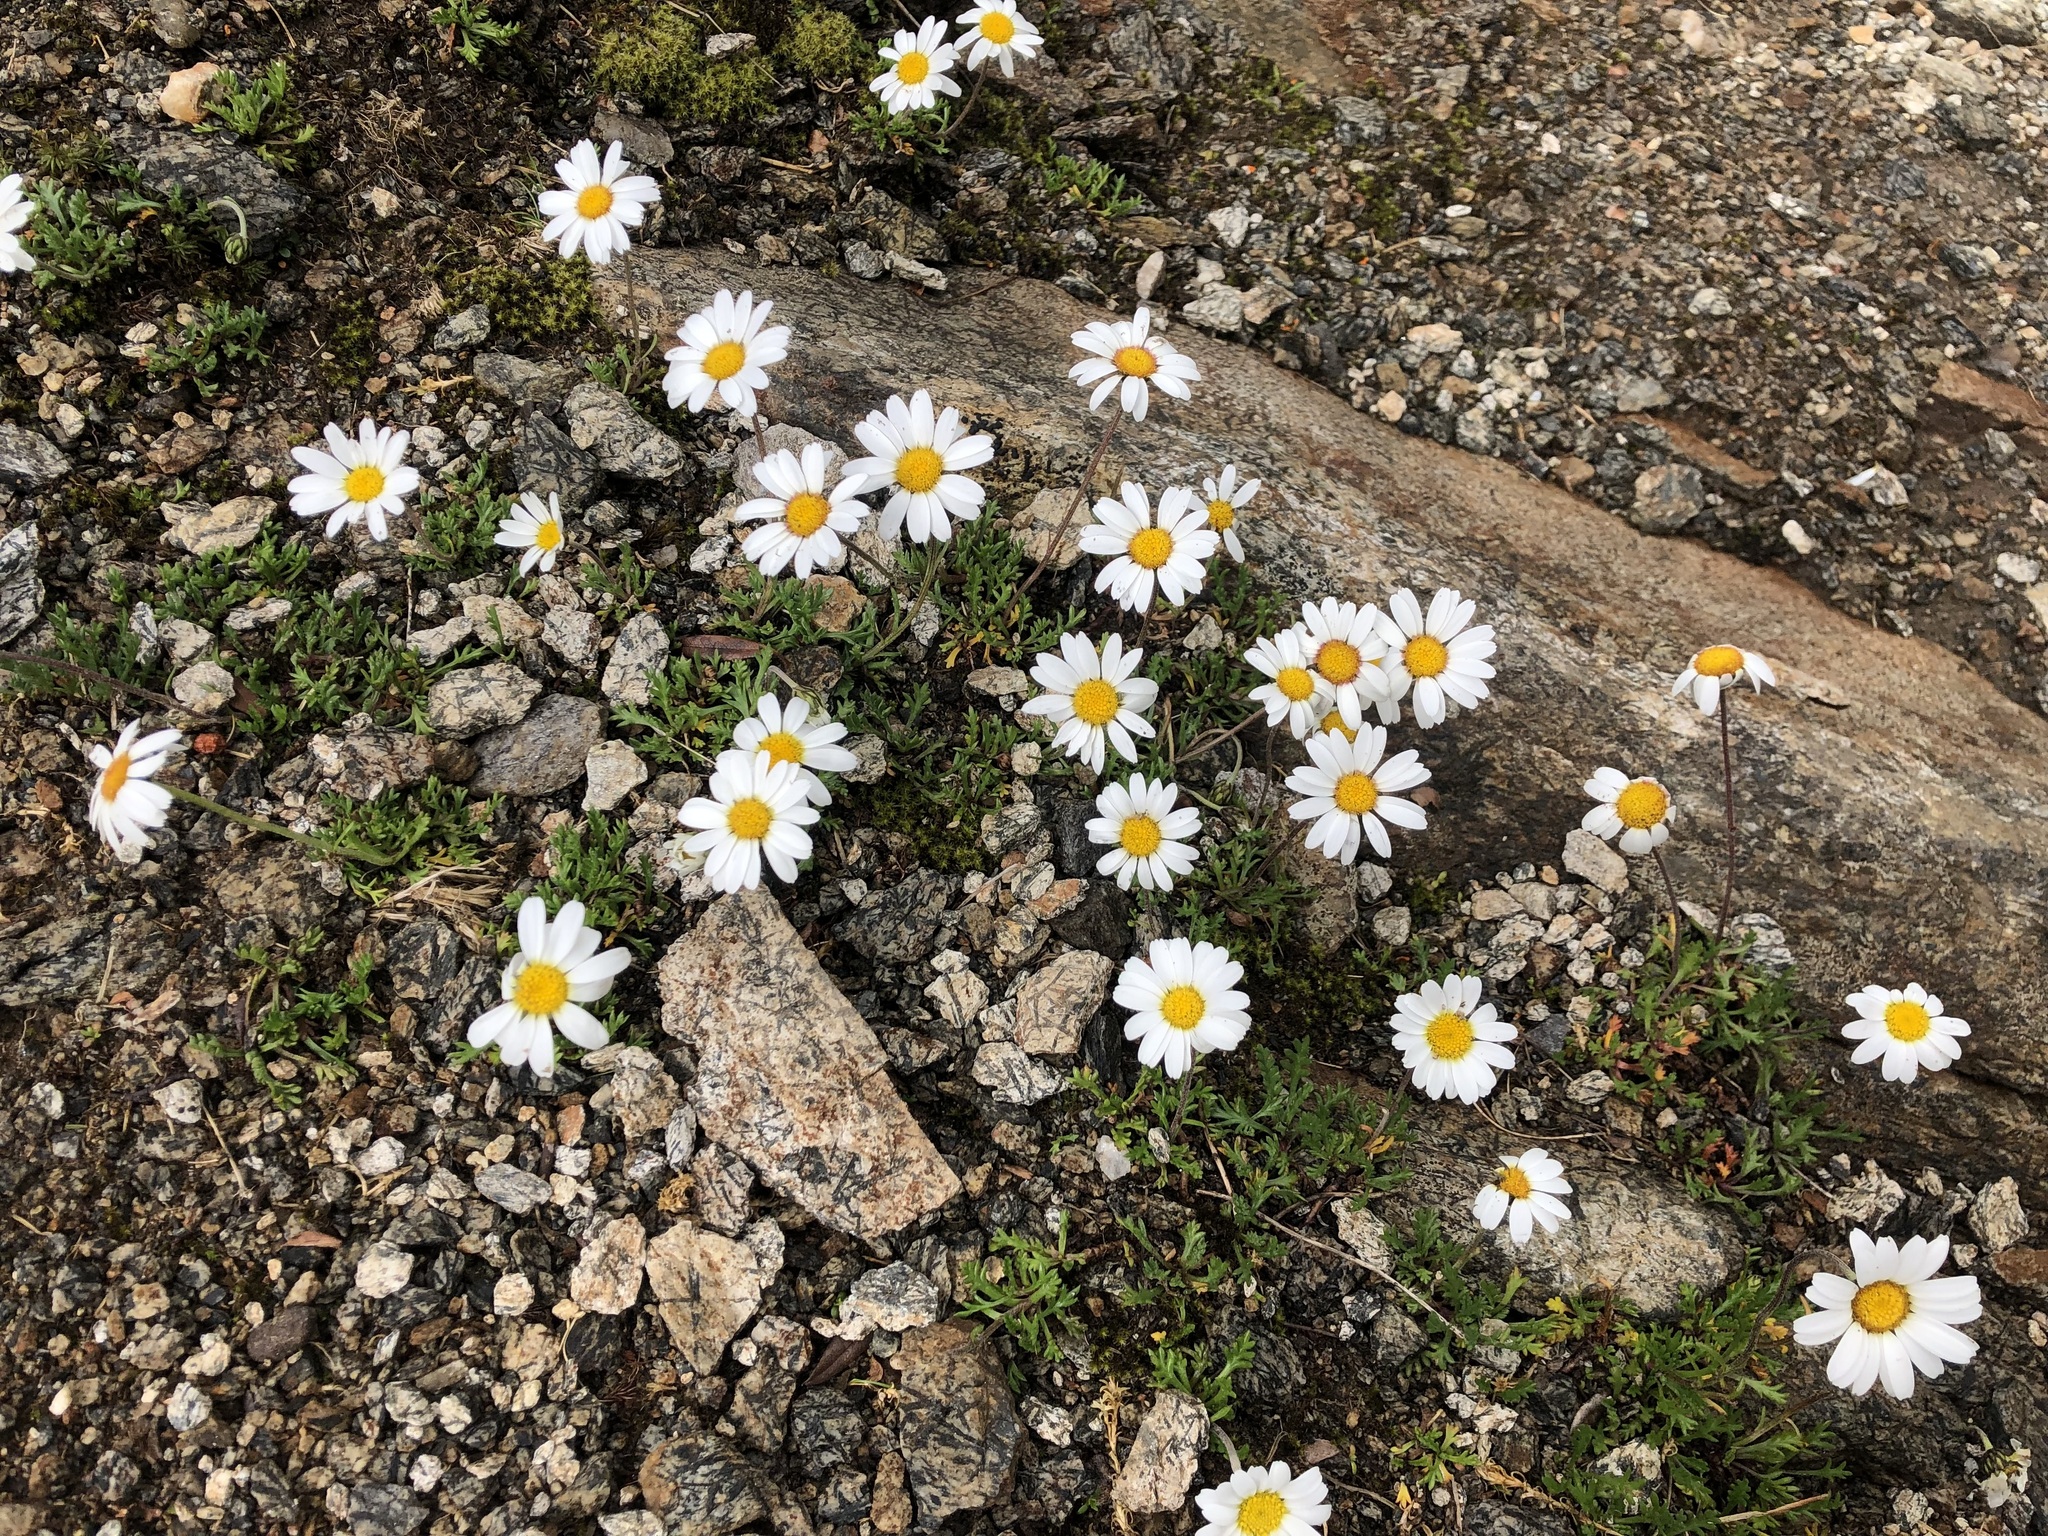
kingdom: Plantae
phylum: Tracheophyta
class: Magnoliopsida
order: Asterales
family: Asteraceae
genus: Leucanthemopsis
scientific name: Leucanthemopsis alpina
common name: Alpine moon daisy
